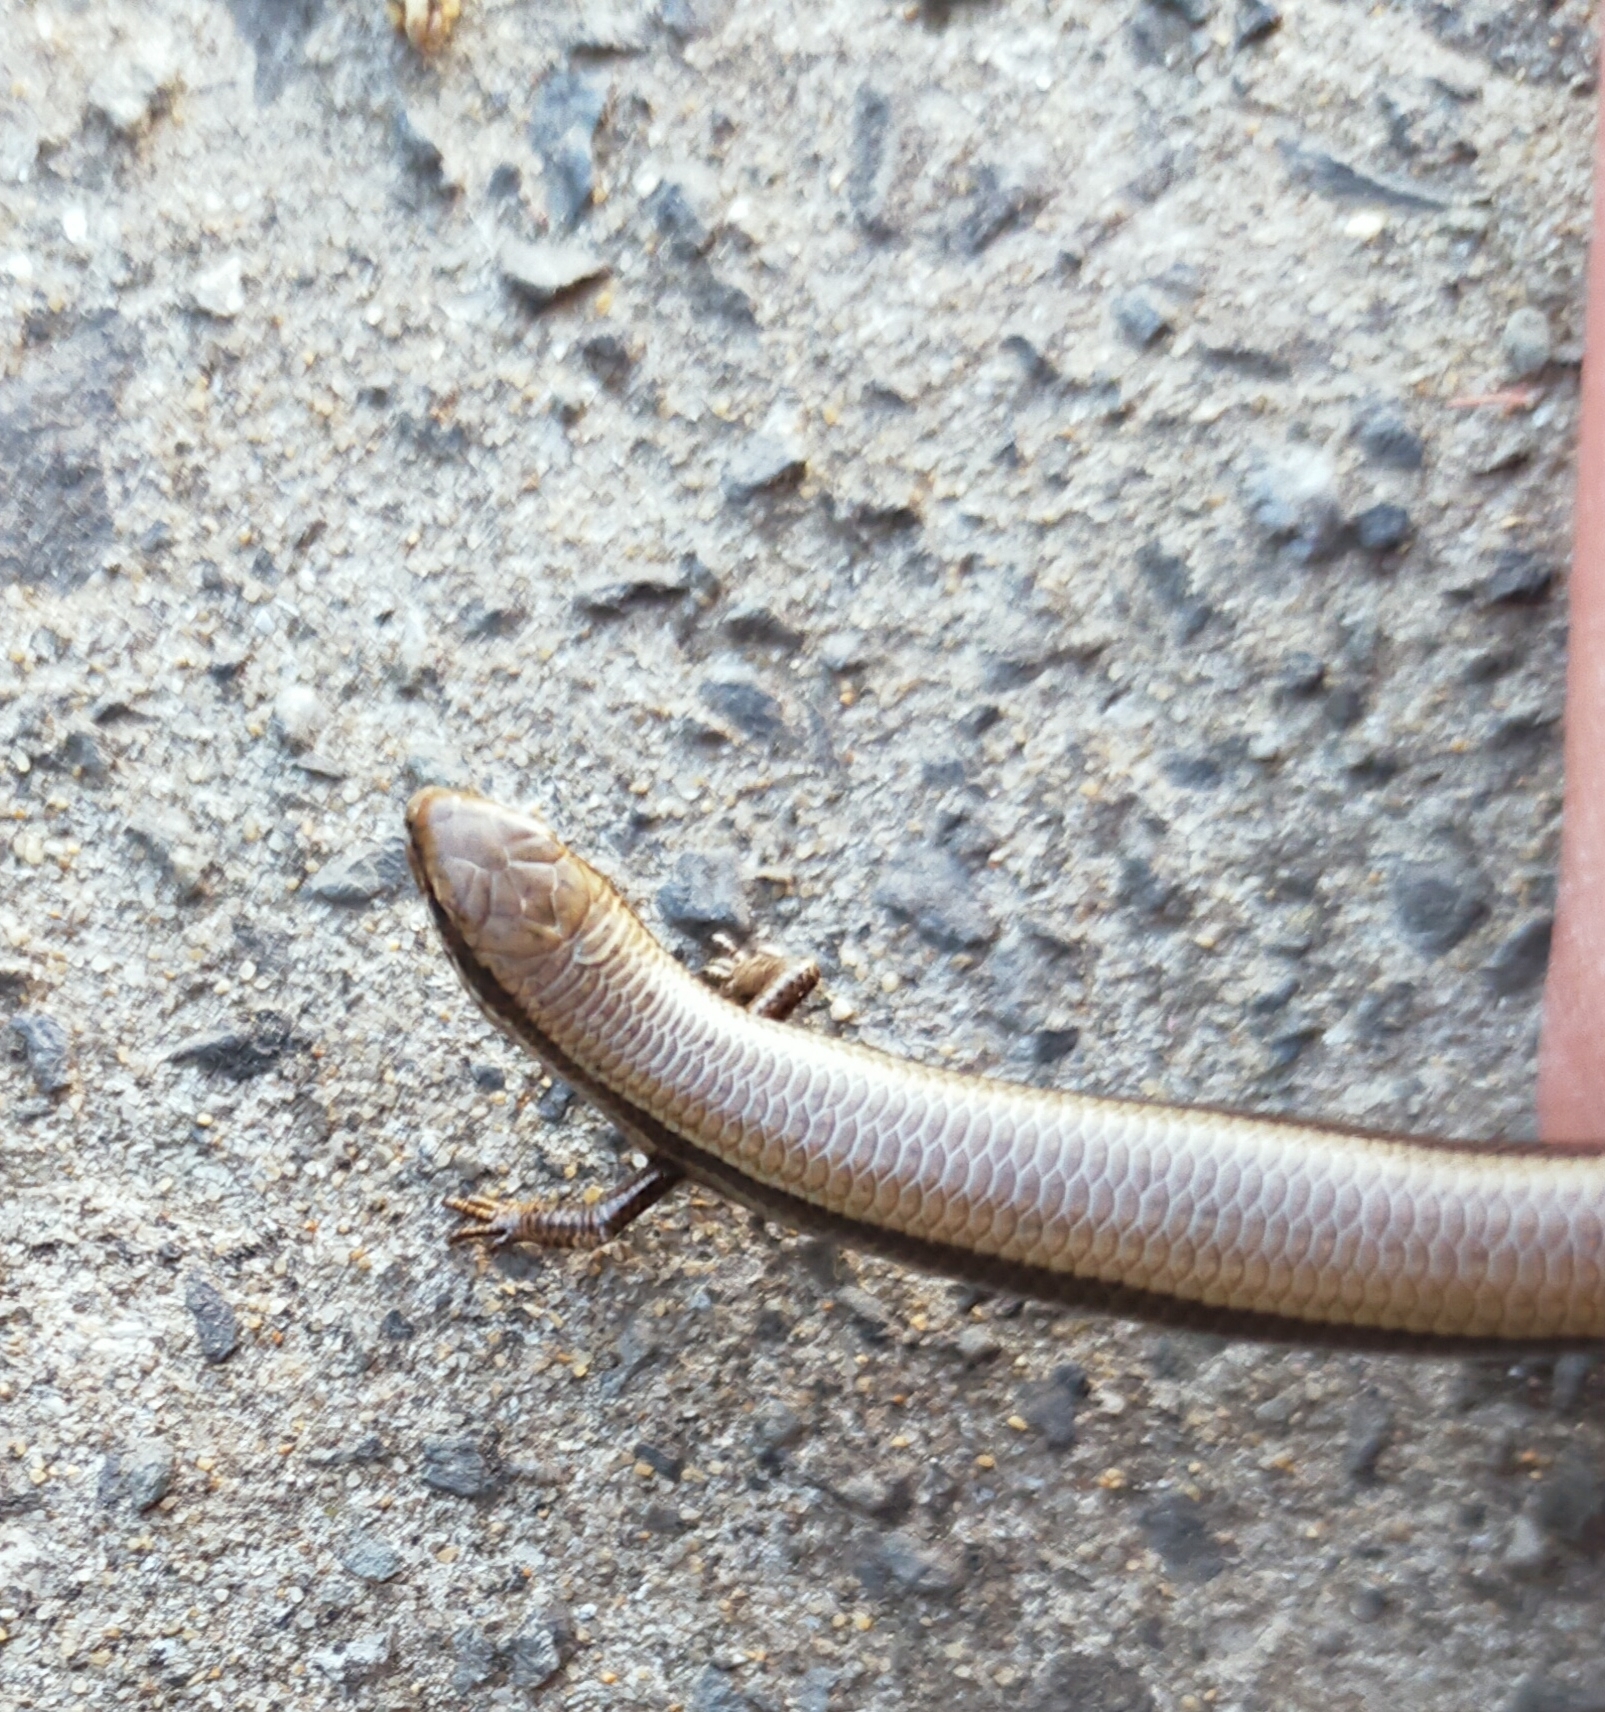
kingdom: Animalia
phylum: Chordata
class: Squamata
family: Scincidae
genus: Ablepharus
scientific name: Ablepharus kitaibelii
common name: Juniper skink
